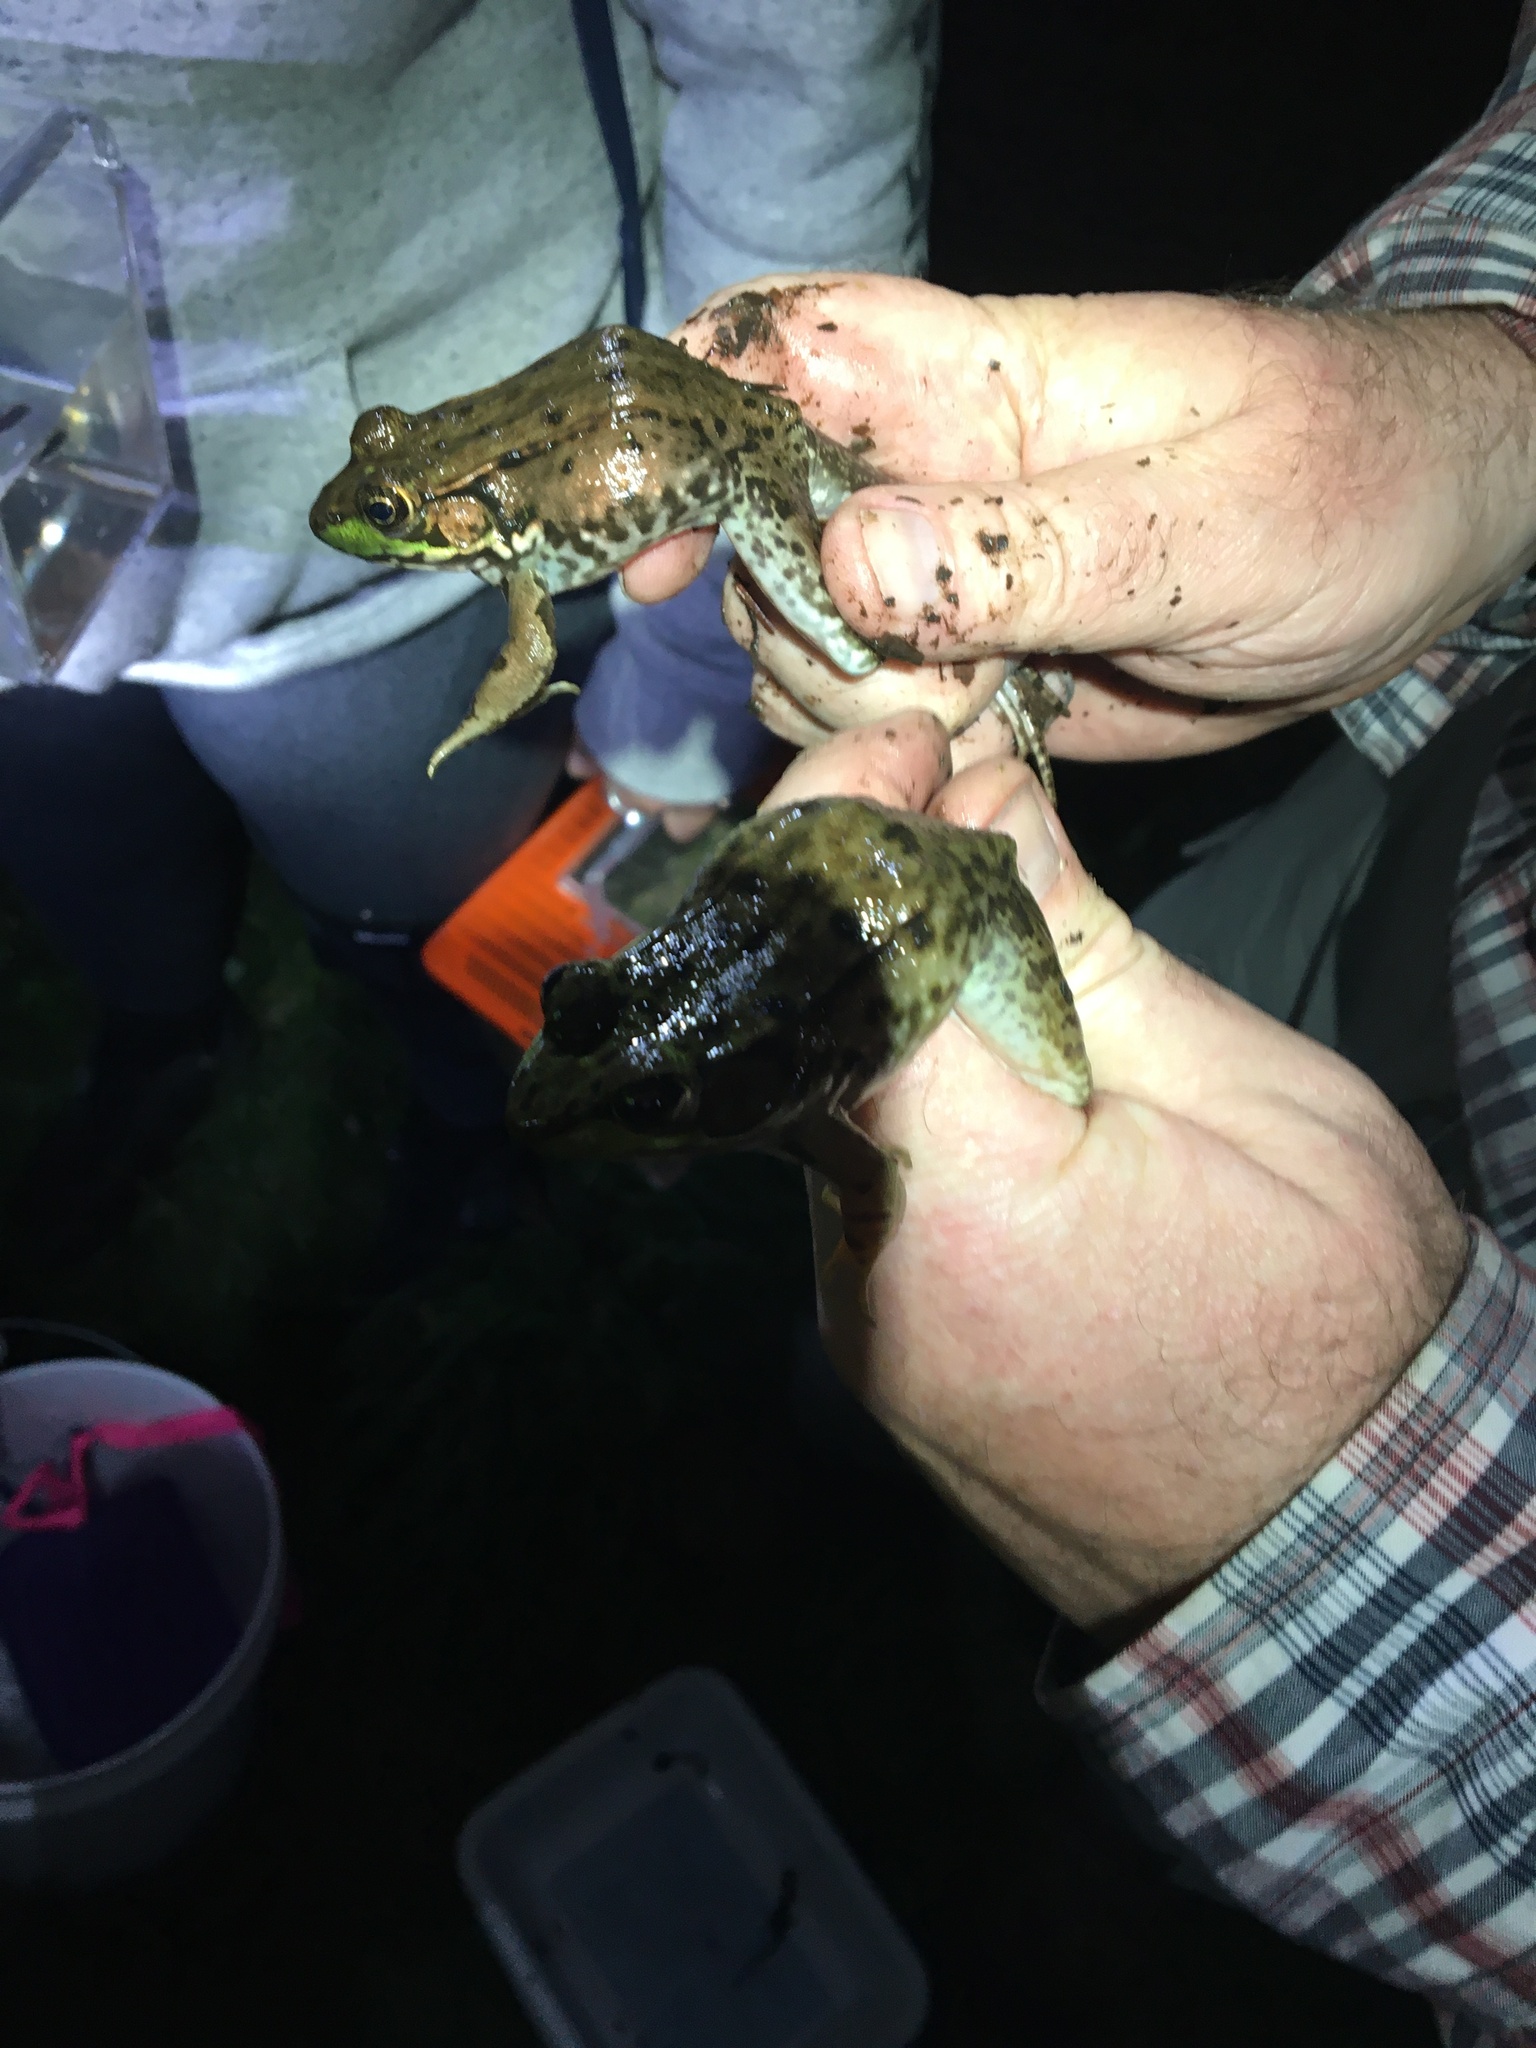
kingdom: Animalia
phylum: Chordata
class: Amphibia
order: Anura
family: Ranidae
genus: Lithobates
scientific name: Lithobates clamitans
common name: Green frog
